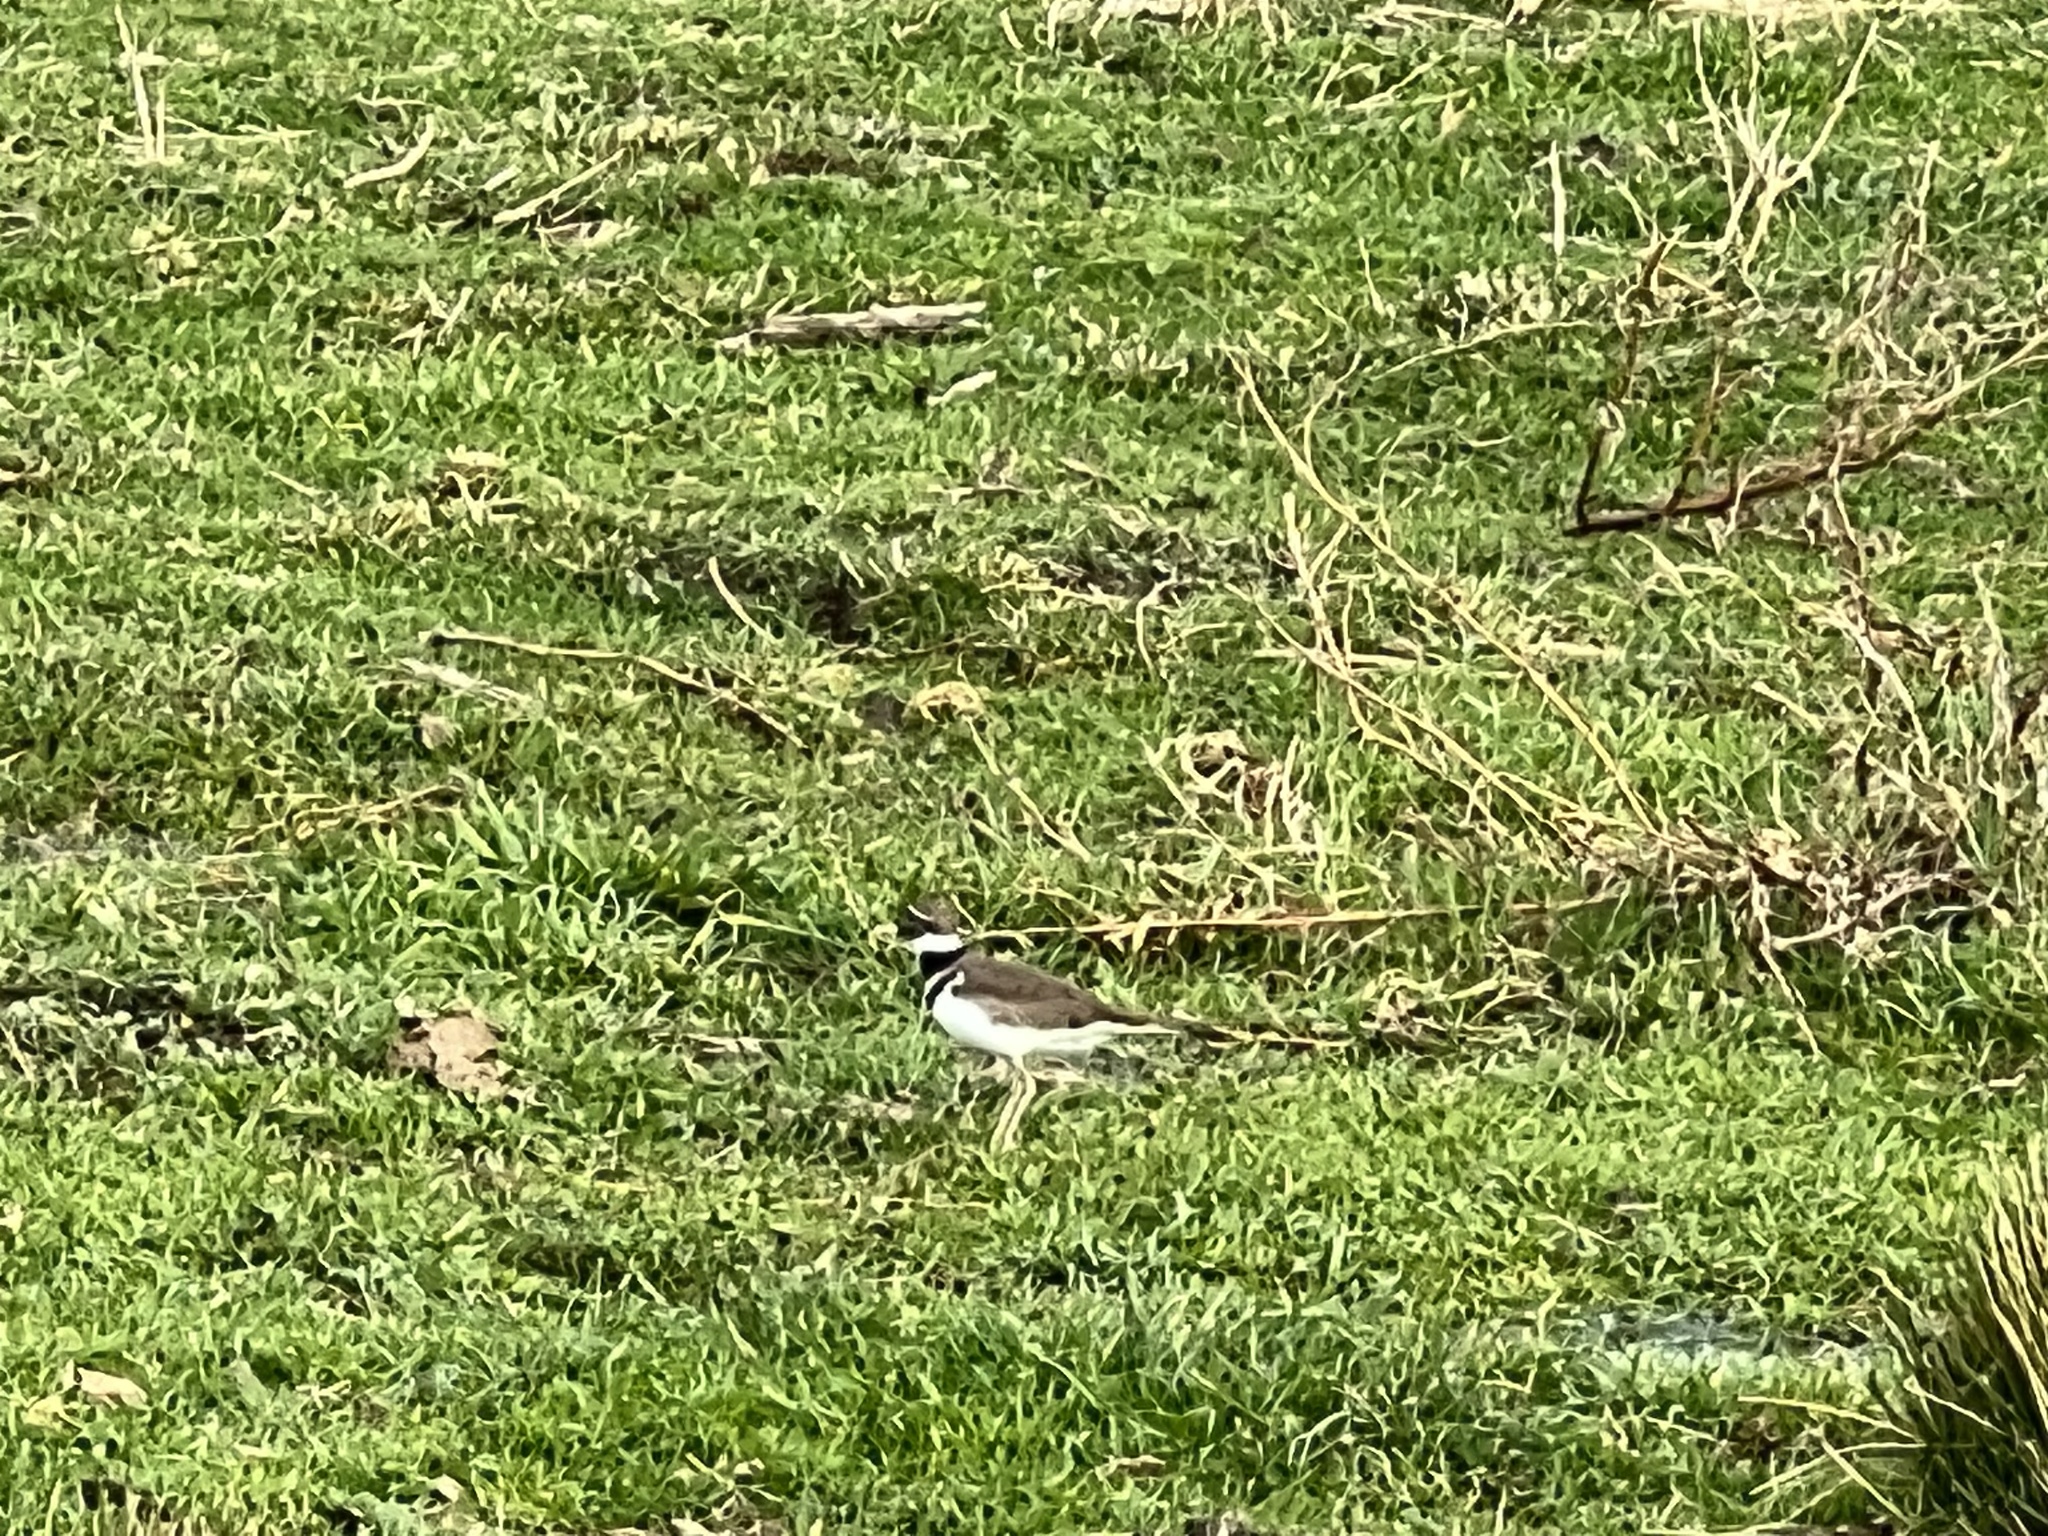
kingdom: Animalia
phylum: Chordata
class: Aves
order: Charadriiformes
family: Charadriidae
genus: Charadrius
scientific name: Charadrius vociferus
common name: Killdeer
